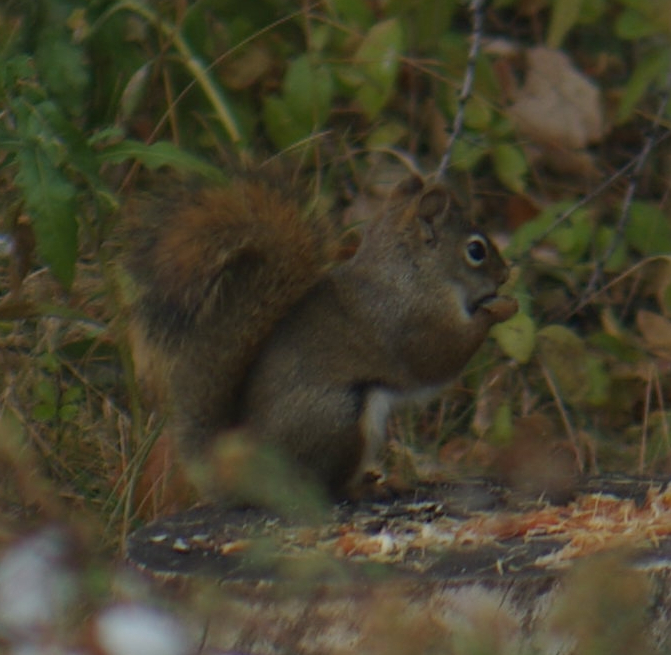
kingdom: Animalia
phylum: Chordata
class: Mammalia
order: Rodentia
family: Sciuridae
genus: Tamiasciurus
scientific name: Tamiasciurus hudsonicus
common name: Red squirrel
